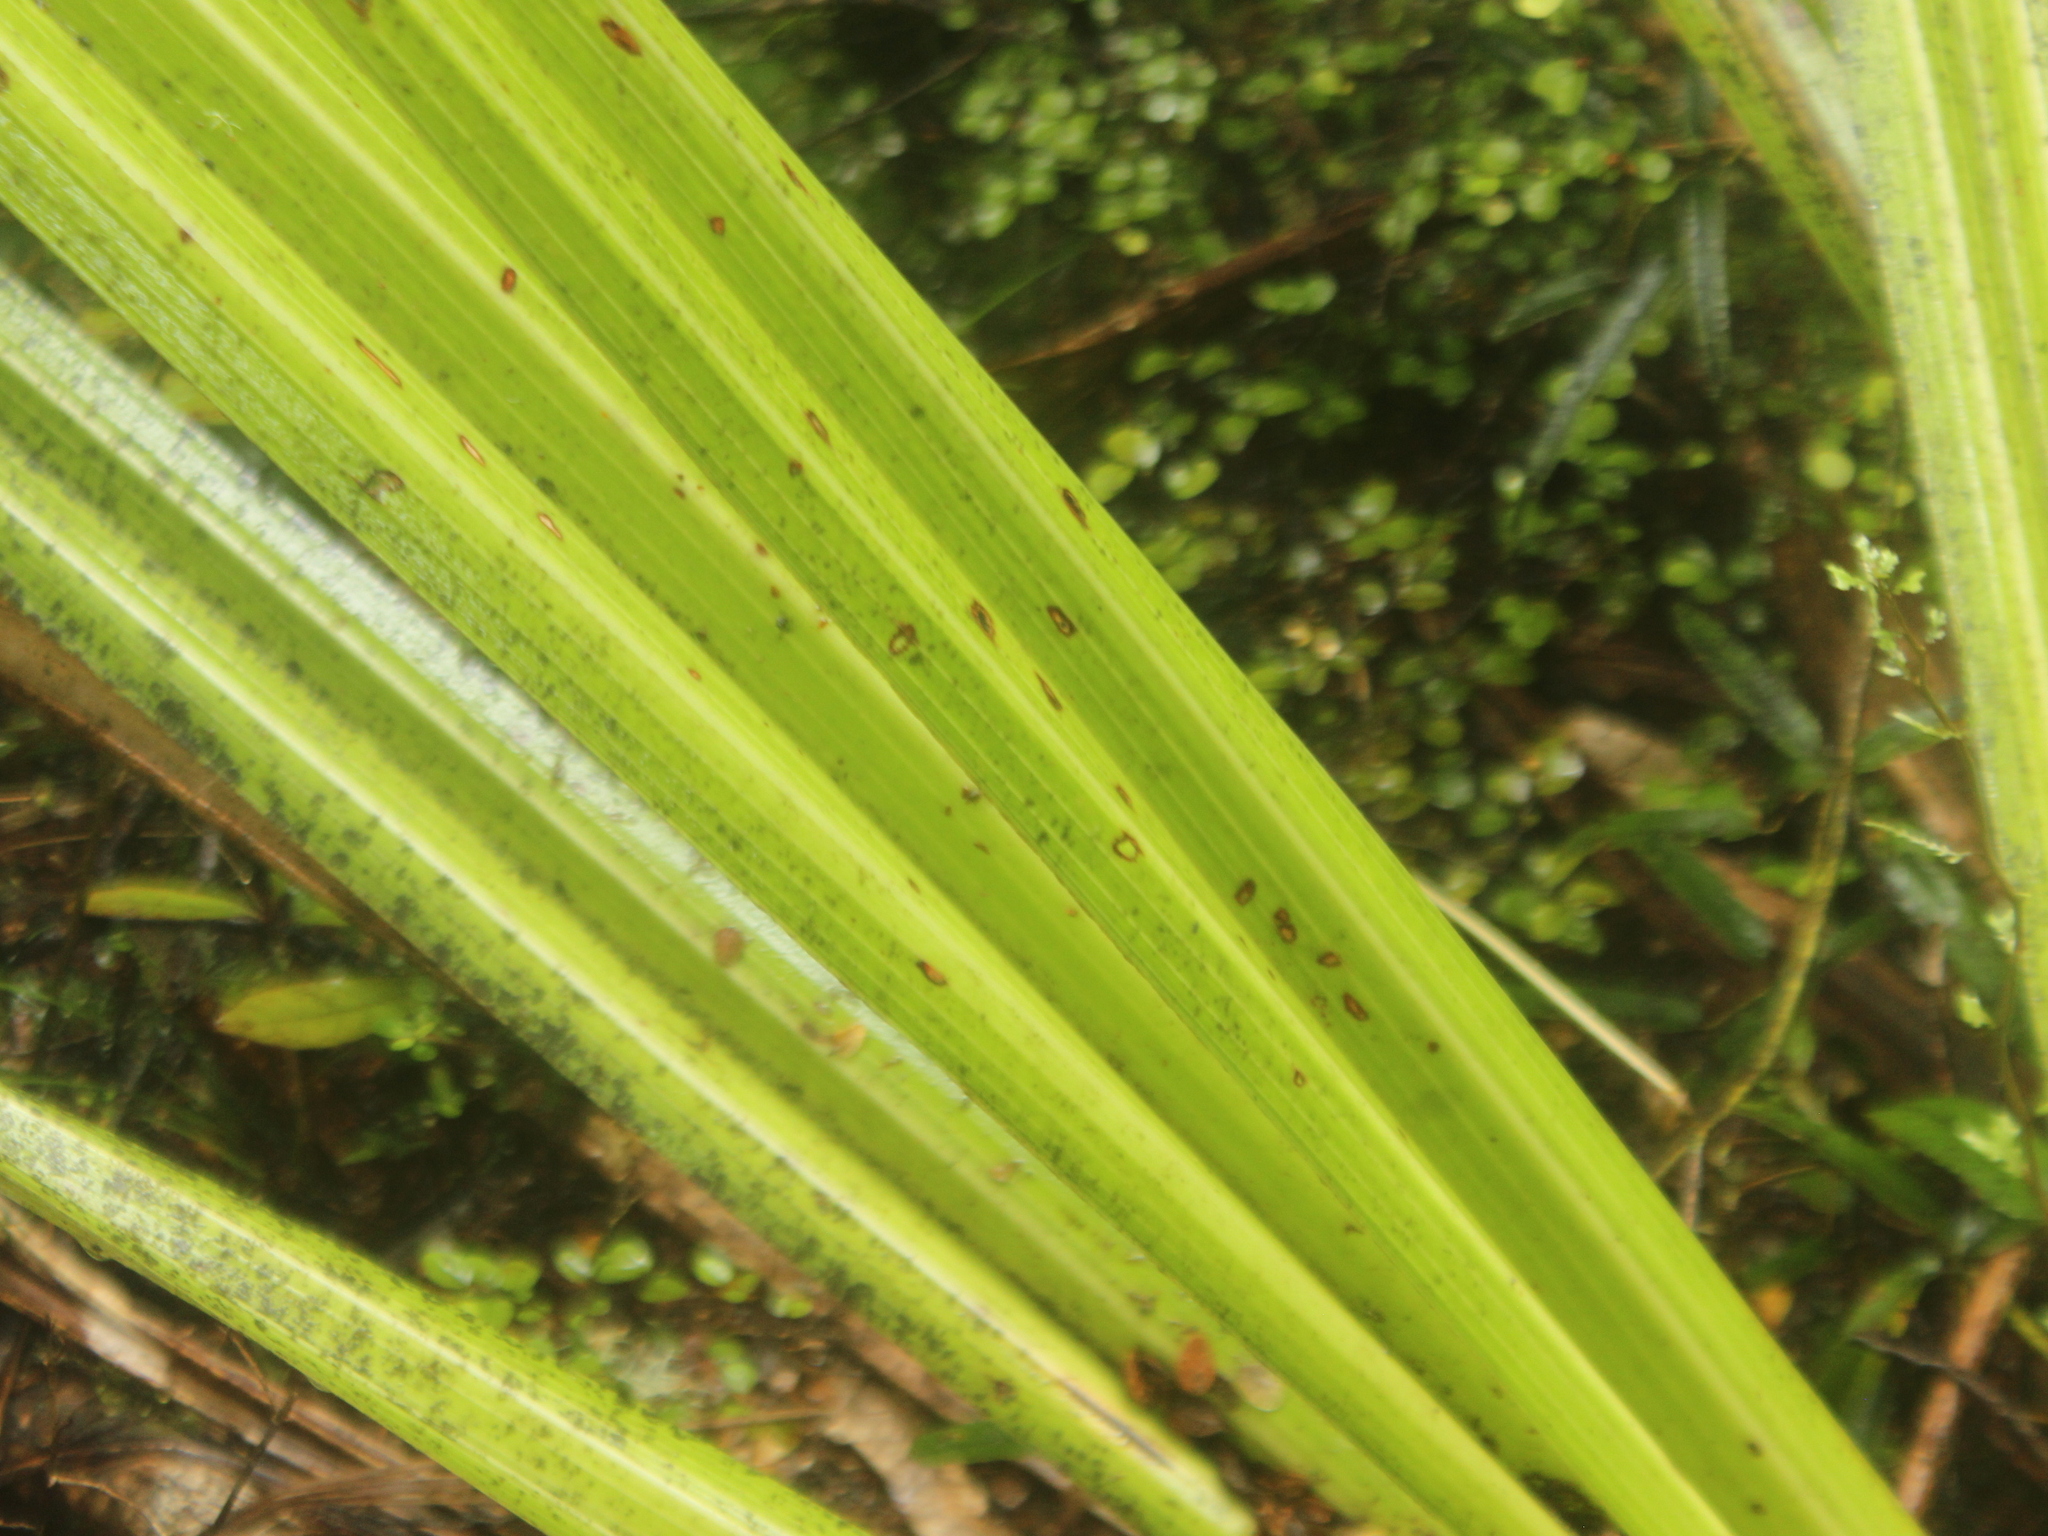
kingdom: Plantae
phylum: Tracheophyta
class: Liliopsida
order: Asparagales
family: Asteliaceae
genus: Astelia
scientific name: Astelia grandis
